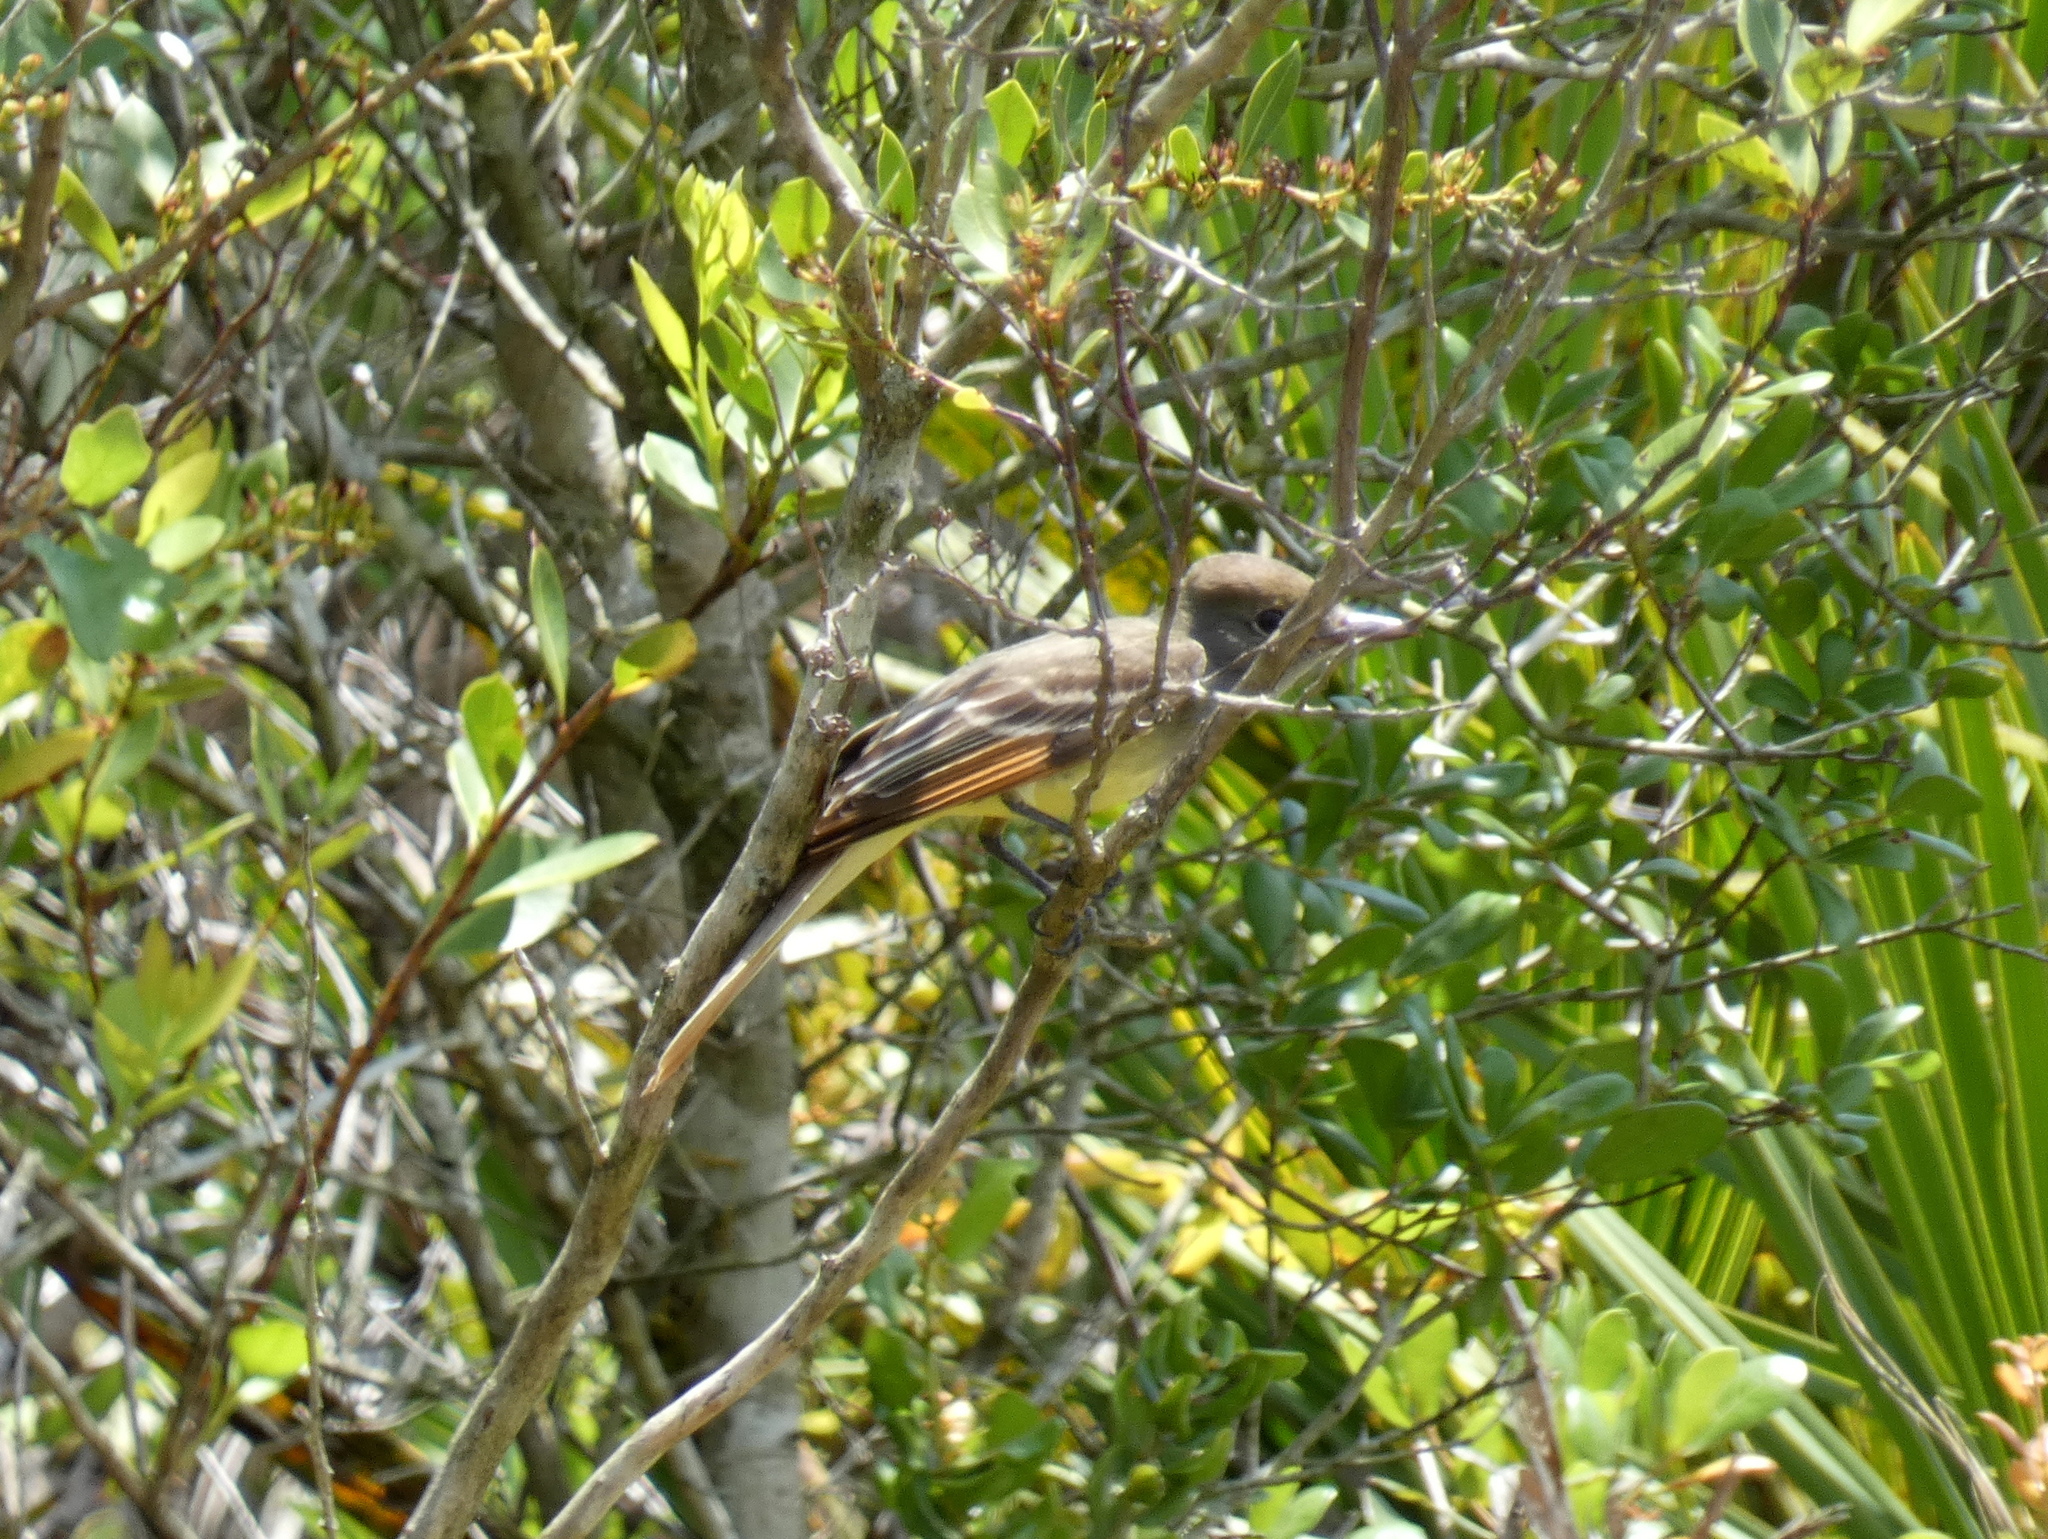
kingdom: Animalia
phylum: Chordata
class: Aves
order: Passeriformes
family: Tyrannidae
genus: Myiarchus
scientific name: Myiarchus crinitus
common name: Great crested flycatcher
